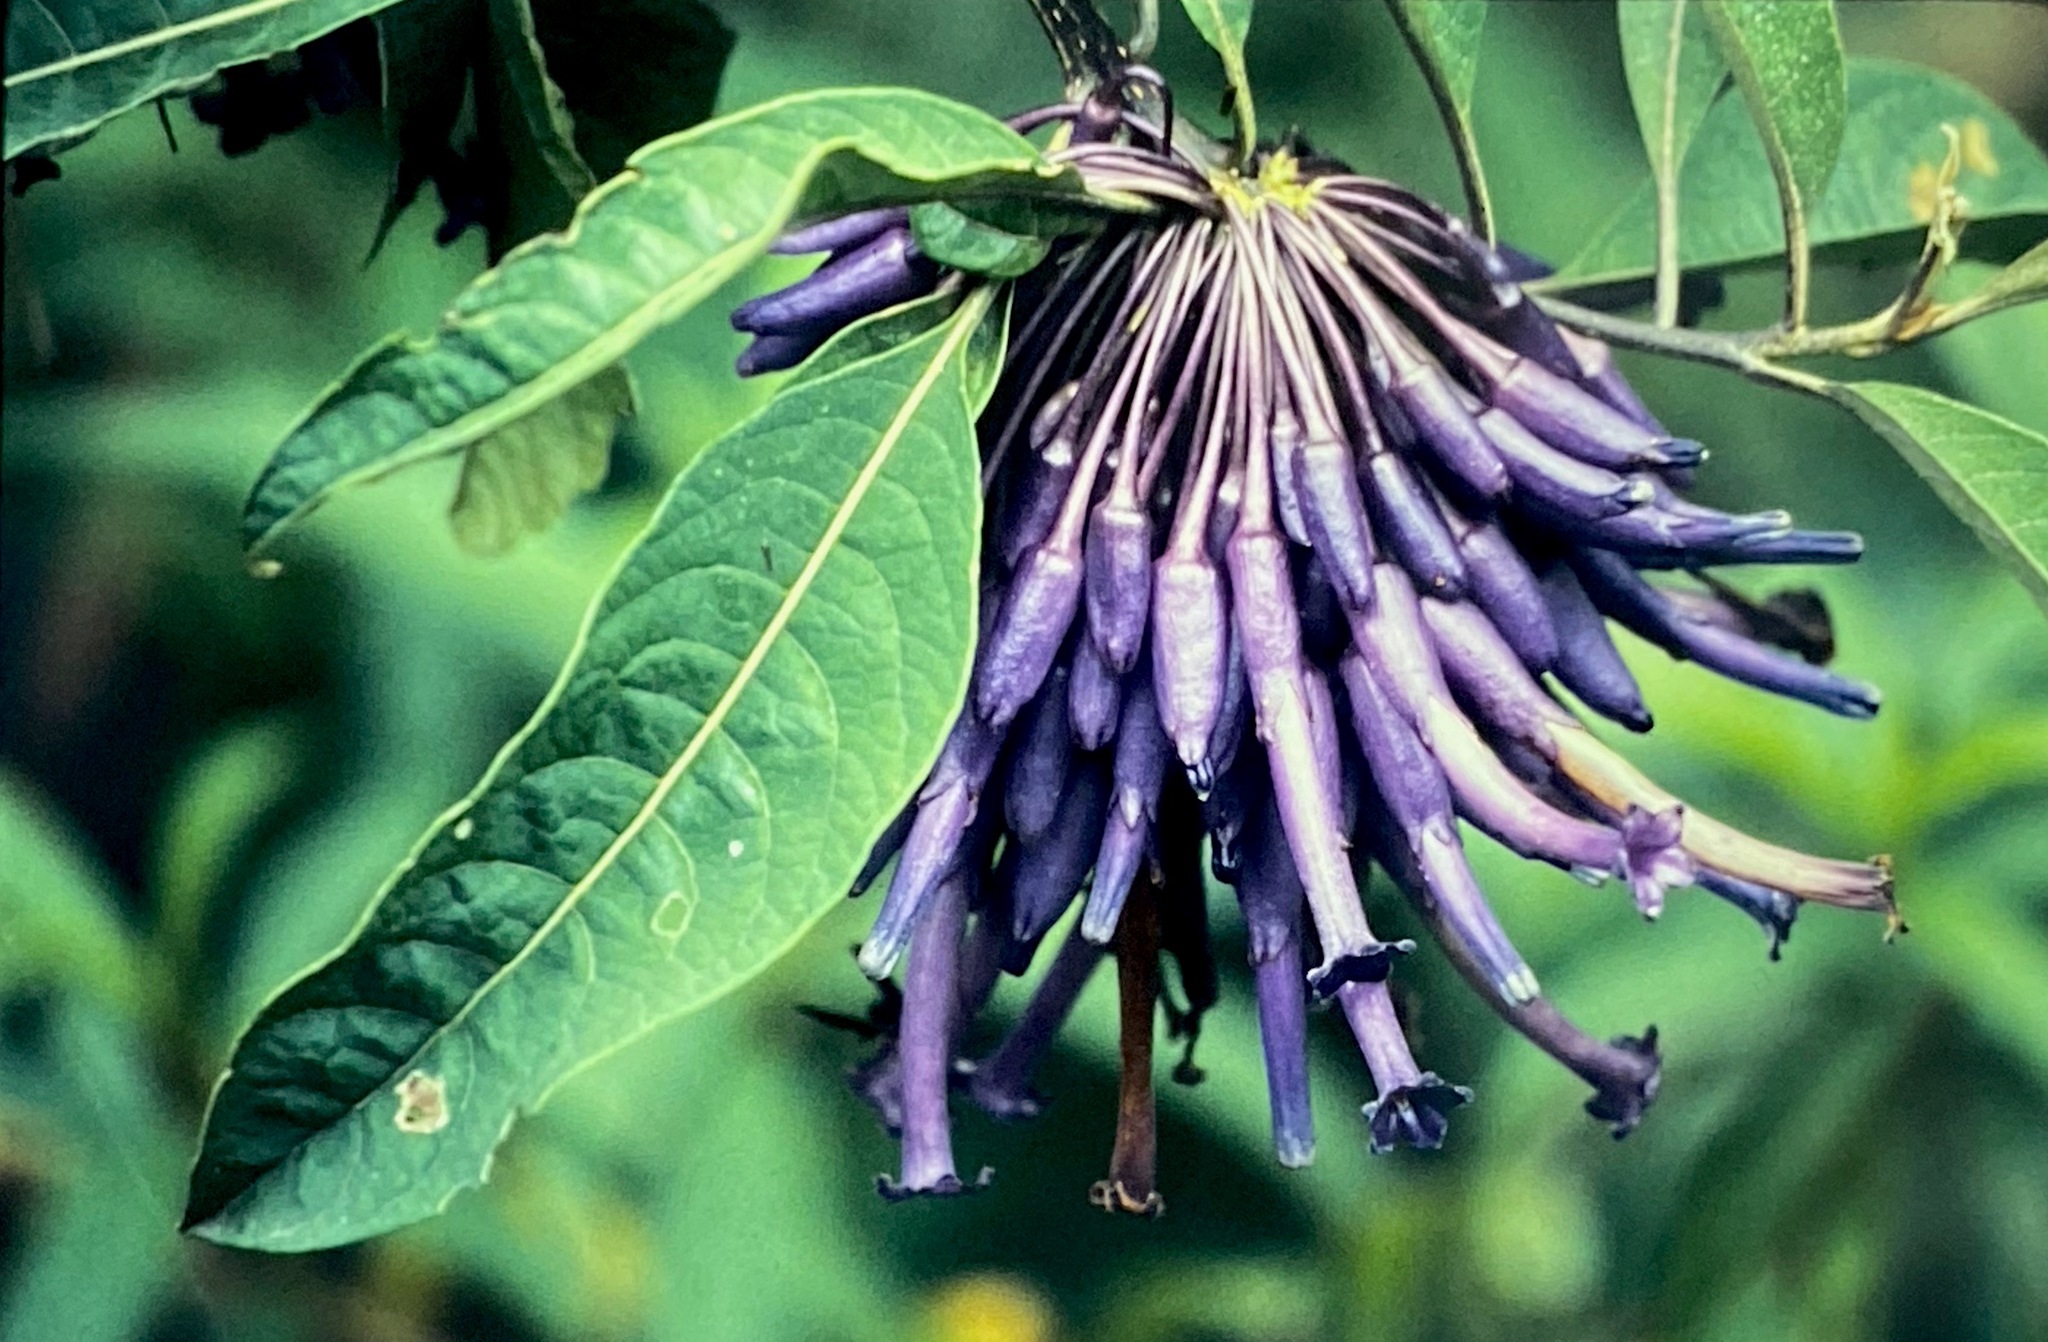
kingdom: Plantae
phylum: Tracheophyta
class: Magnoliopsida
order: Solanales
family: Solanaceae
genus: Iochroma
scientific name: Iochroma calycinum
